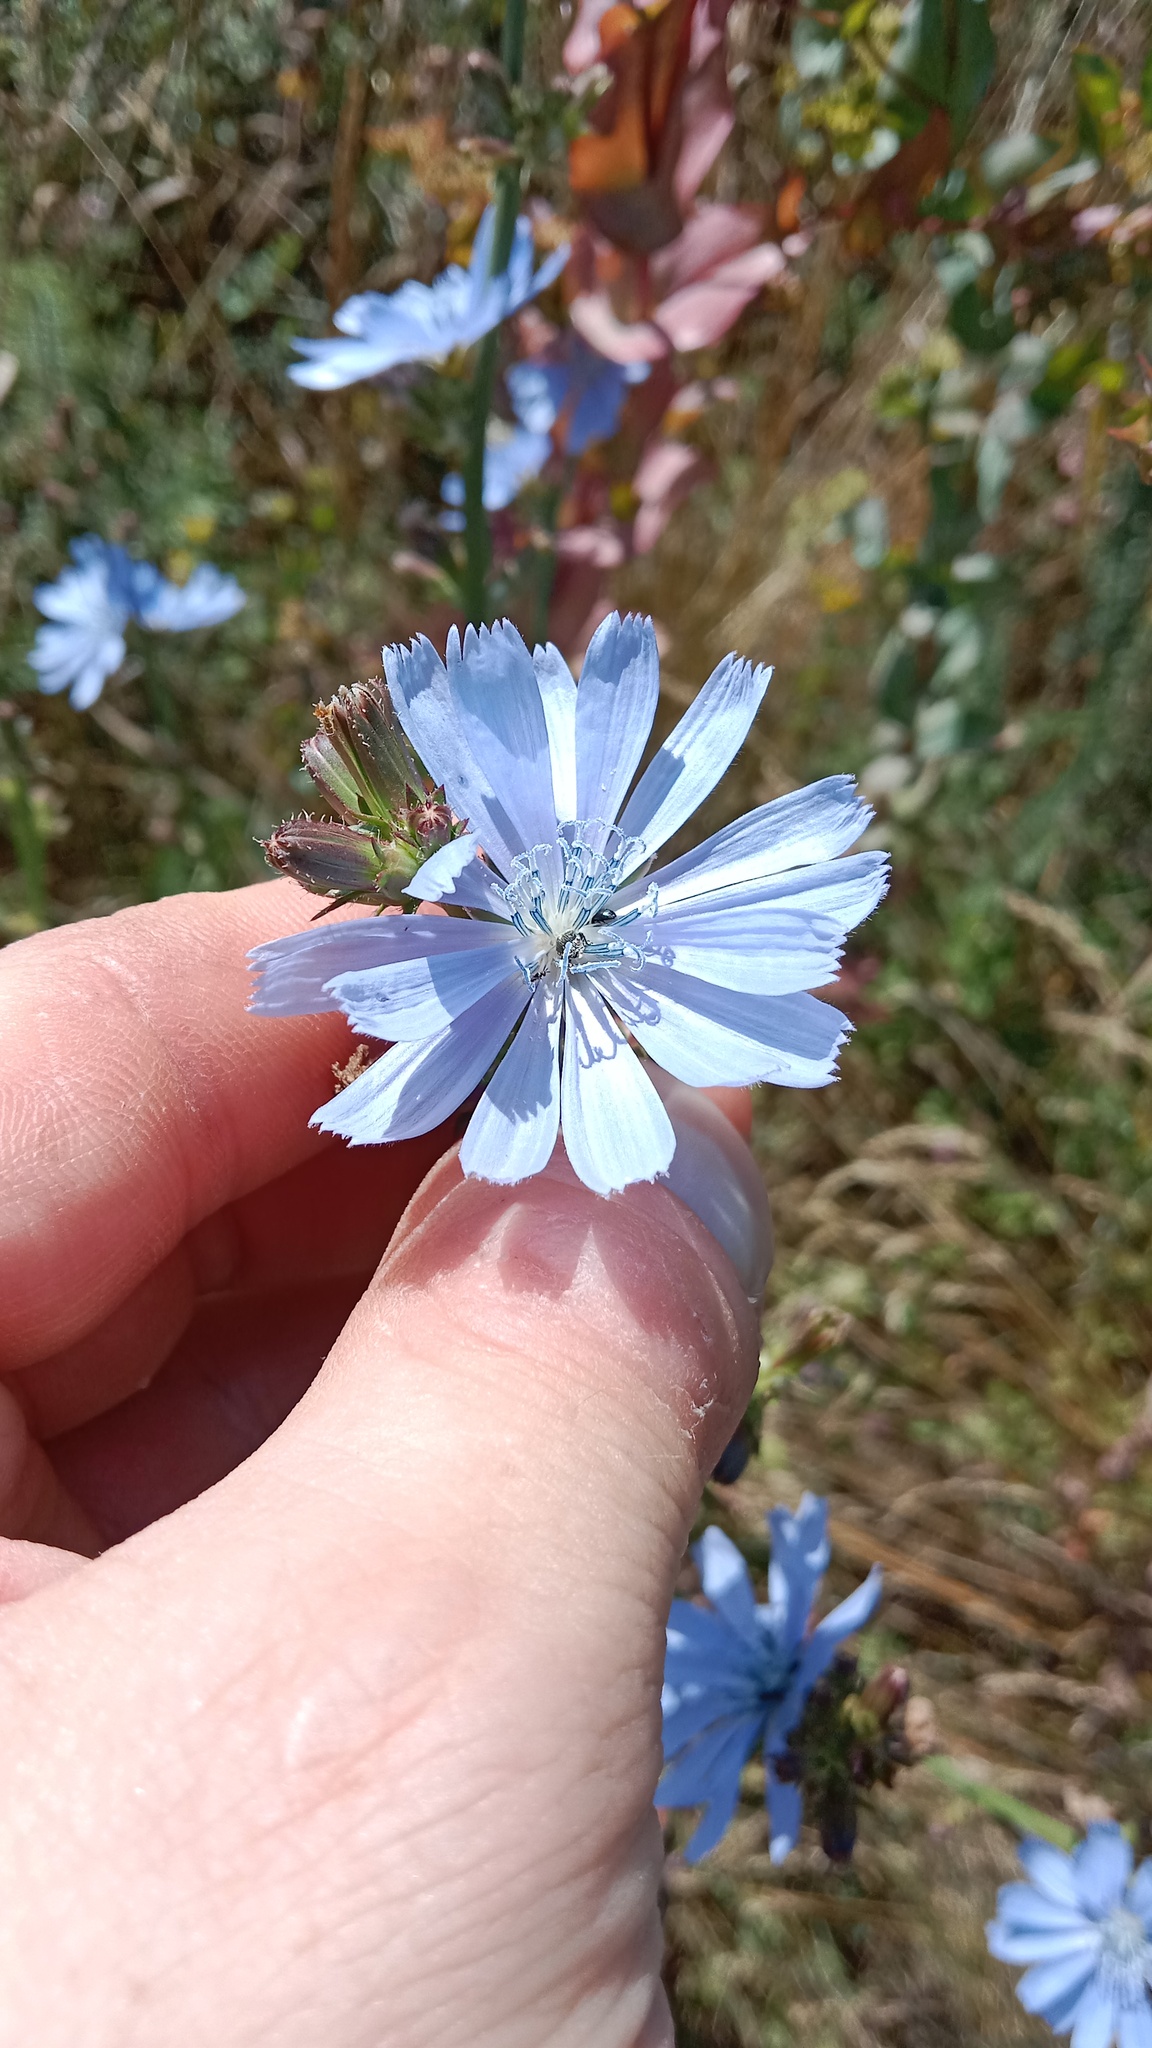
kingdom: Plantae
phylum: Tracheophyta
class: Magnoliopsida
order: Asterales
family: Asteraceae
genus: Cichorium
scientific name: Cichorium intybus
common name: Chicory
